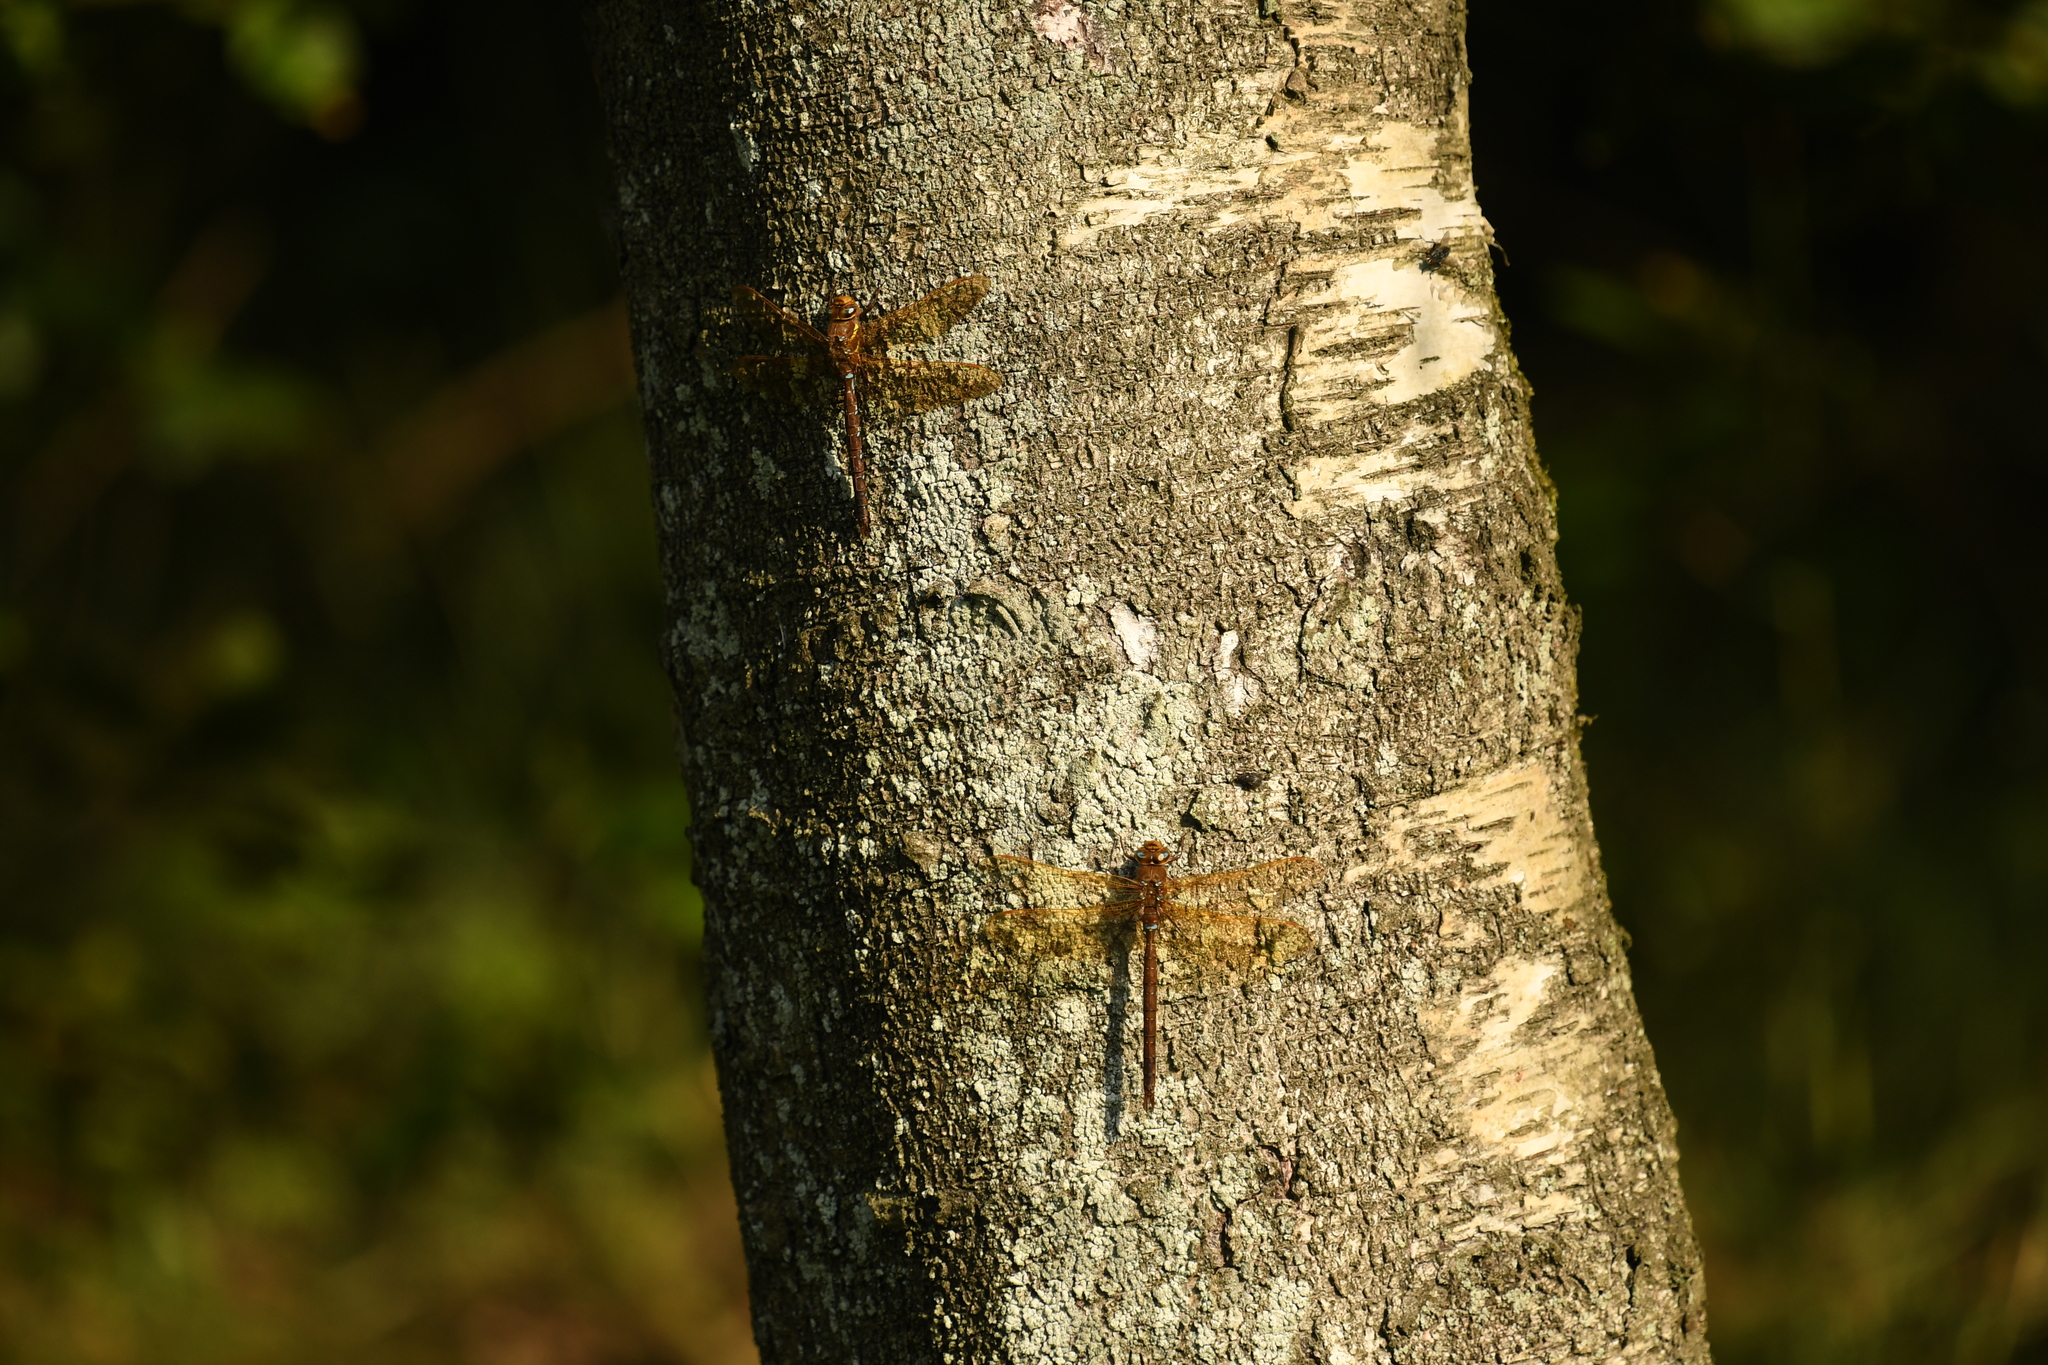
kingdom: Animalia
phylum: Arthropoda
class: Insecta
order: Odonata
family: Aeshnidae
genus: Aeshna
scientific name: Aeshna grandis
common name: Brown hawker
